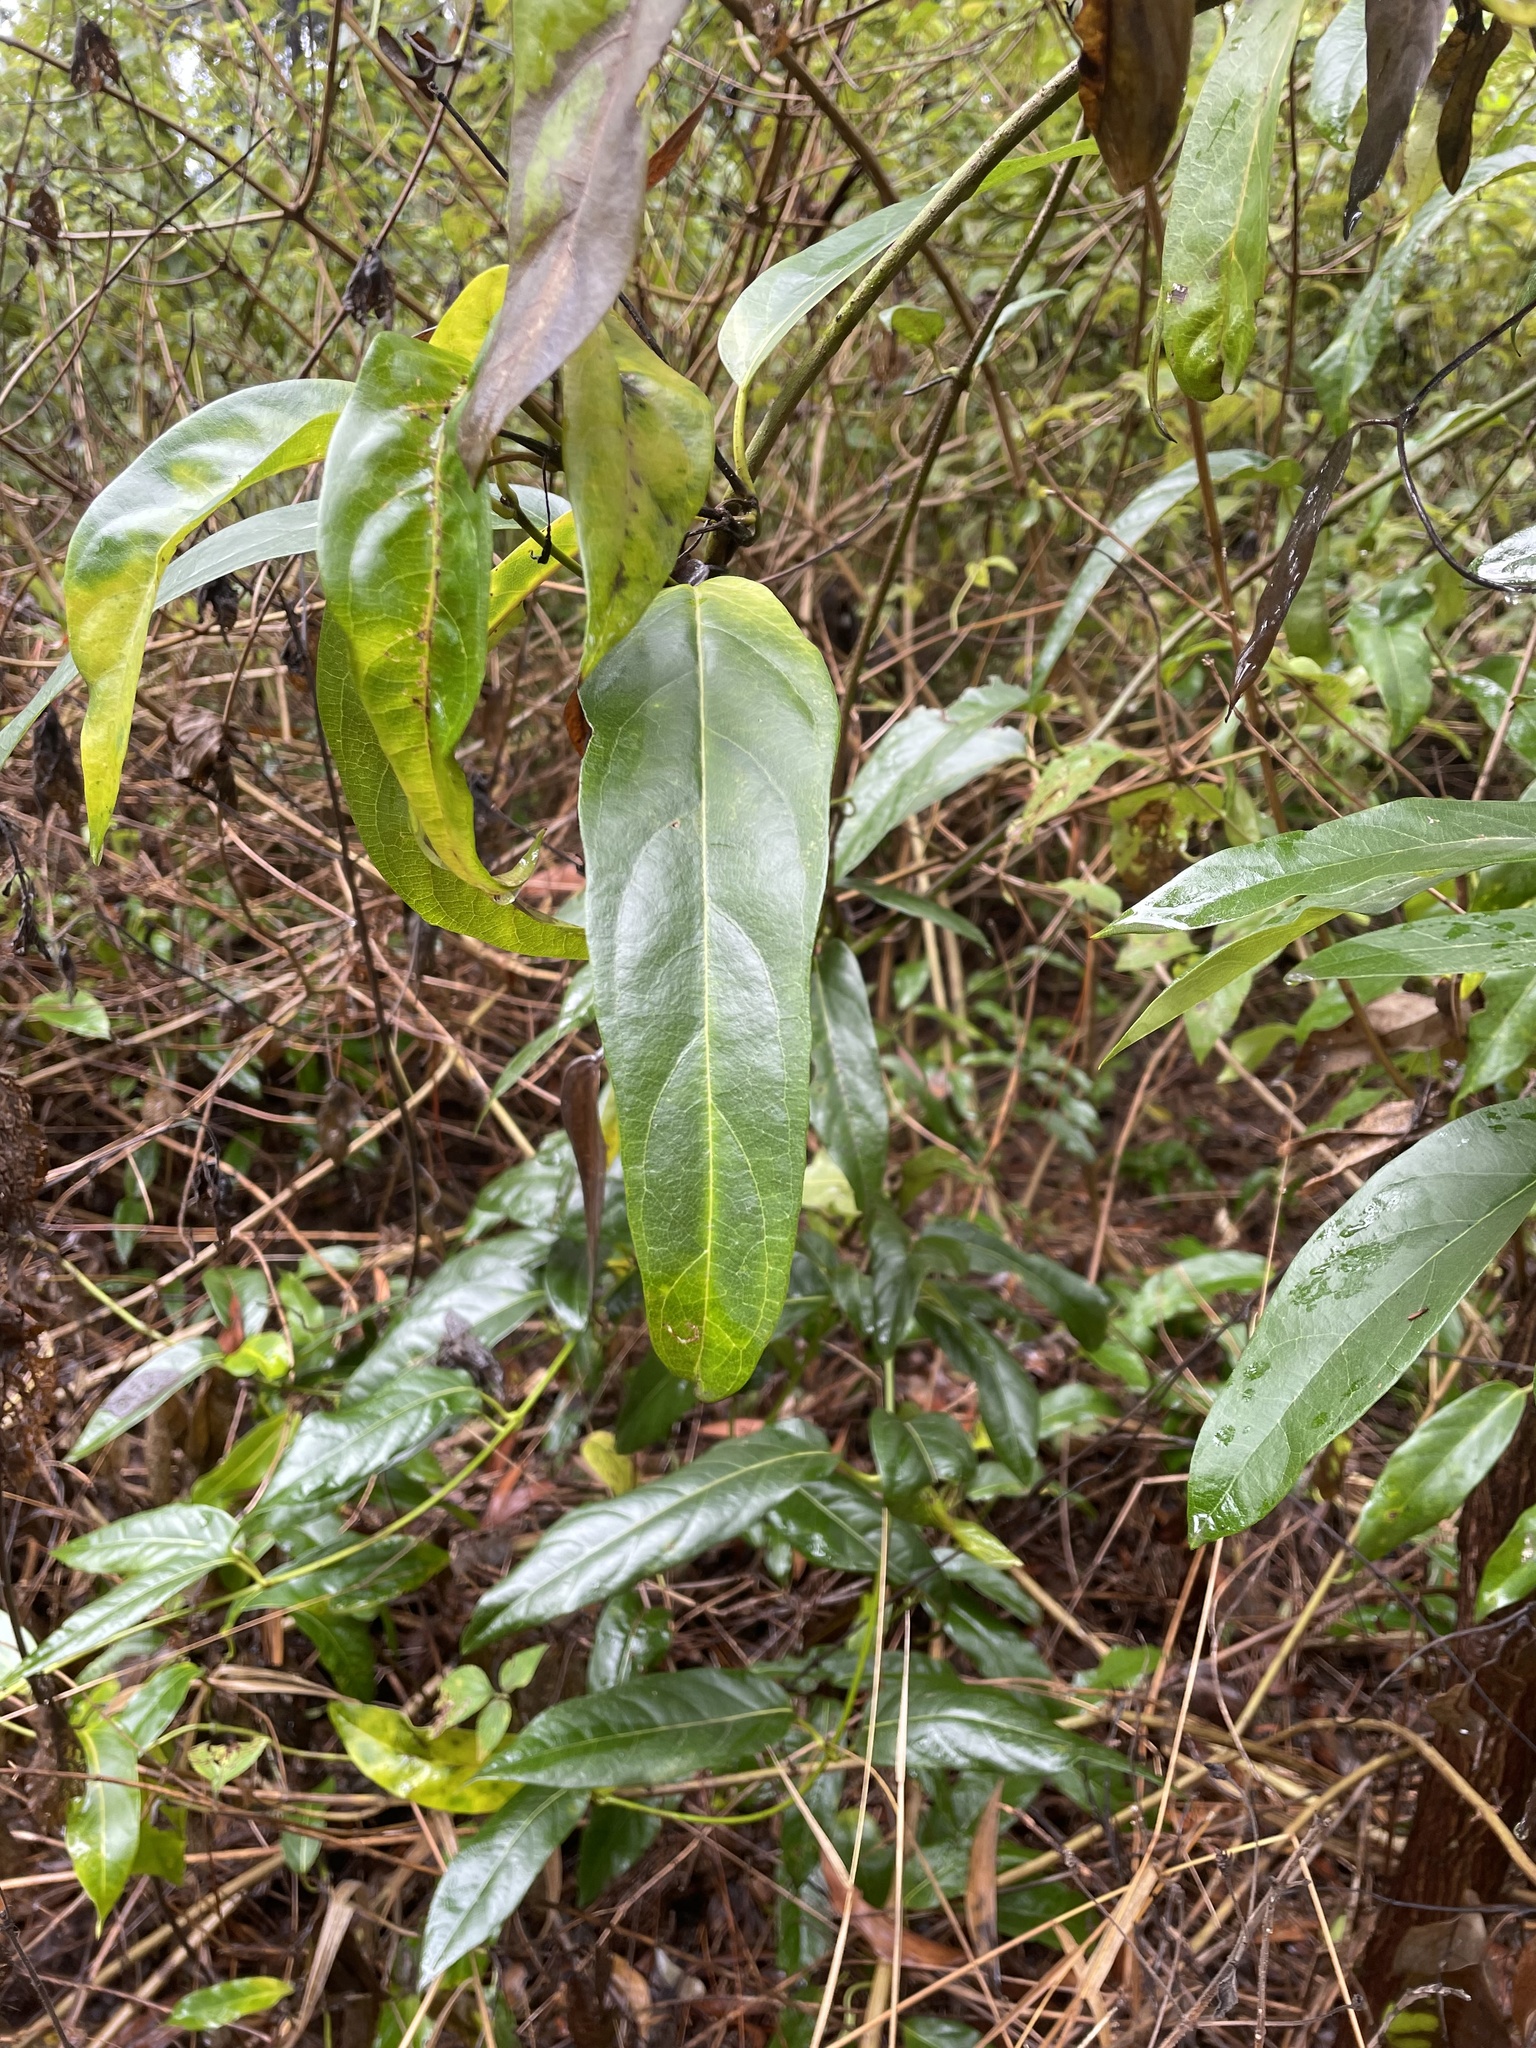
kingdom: Plantae
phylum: Tracheophyta
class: Magnoliopsida
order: Gentianales
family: Apocynaceae
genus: Parsonsia
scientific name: Parsonsia straminea
